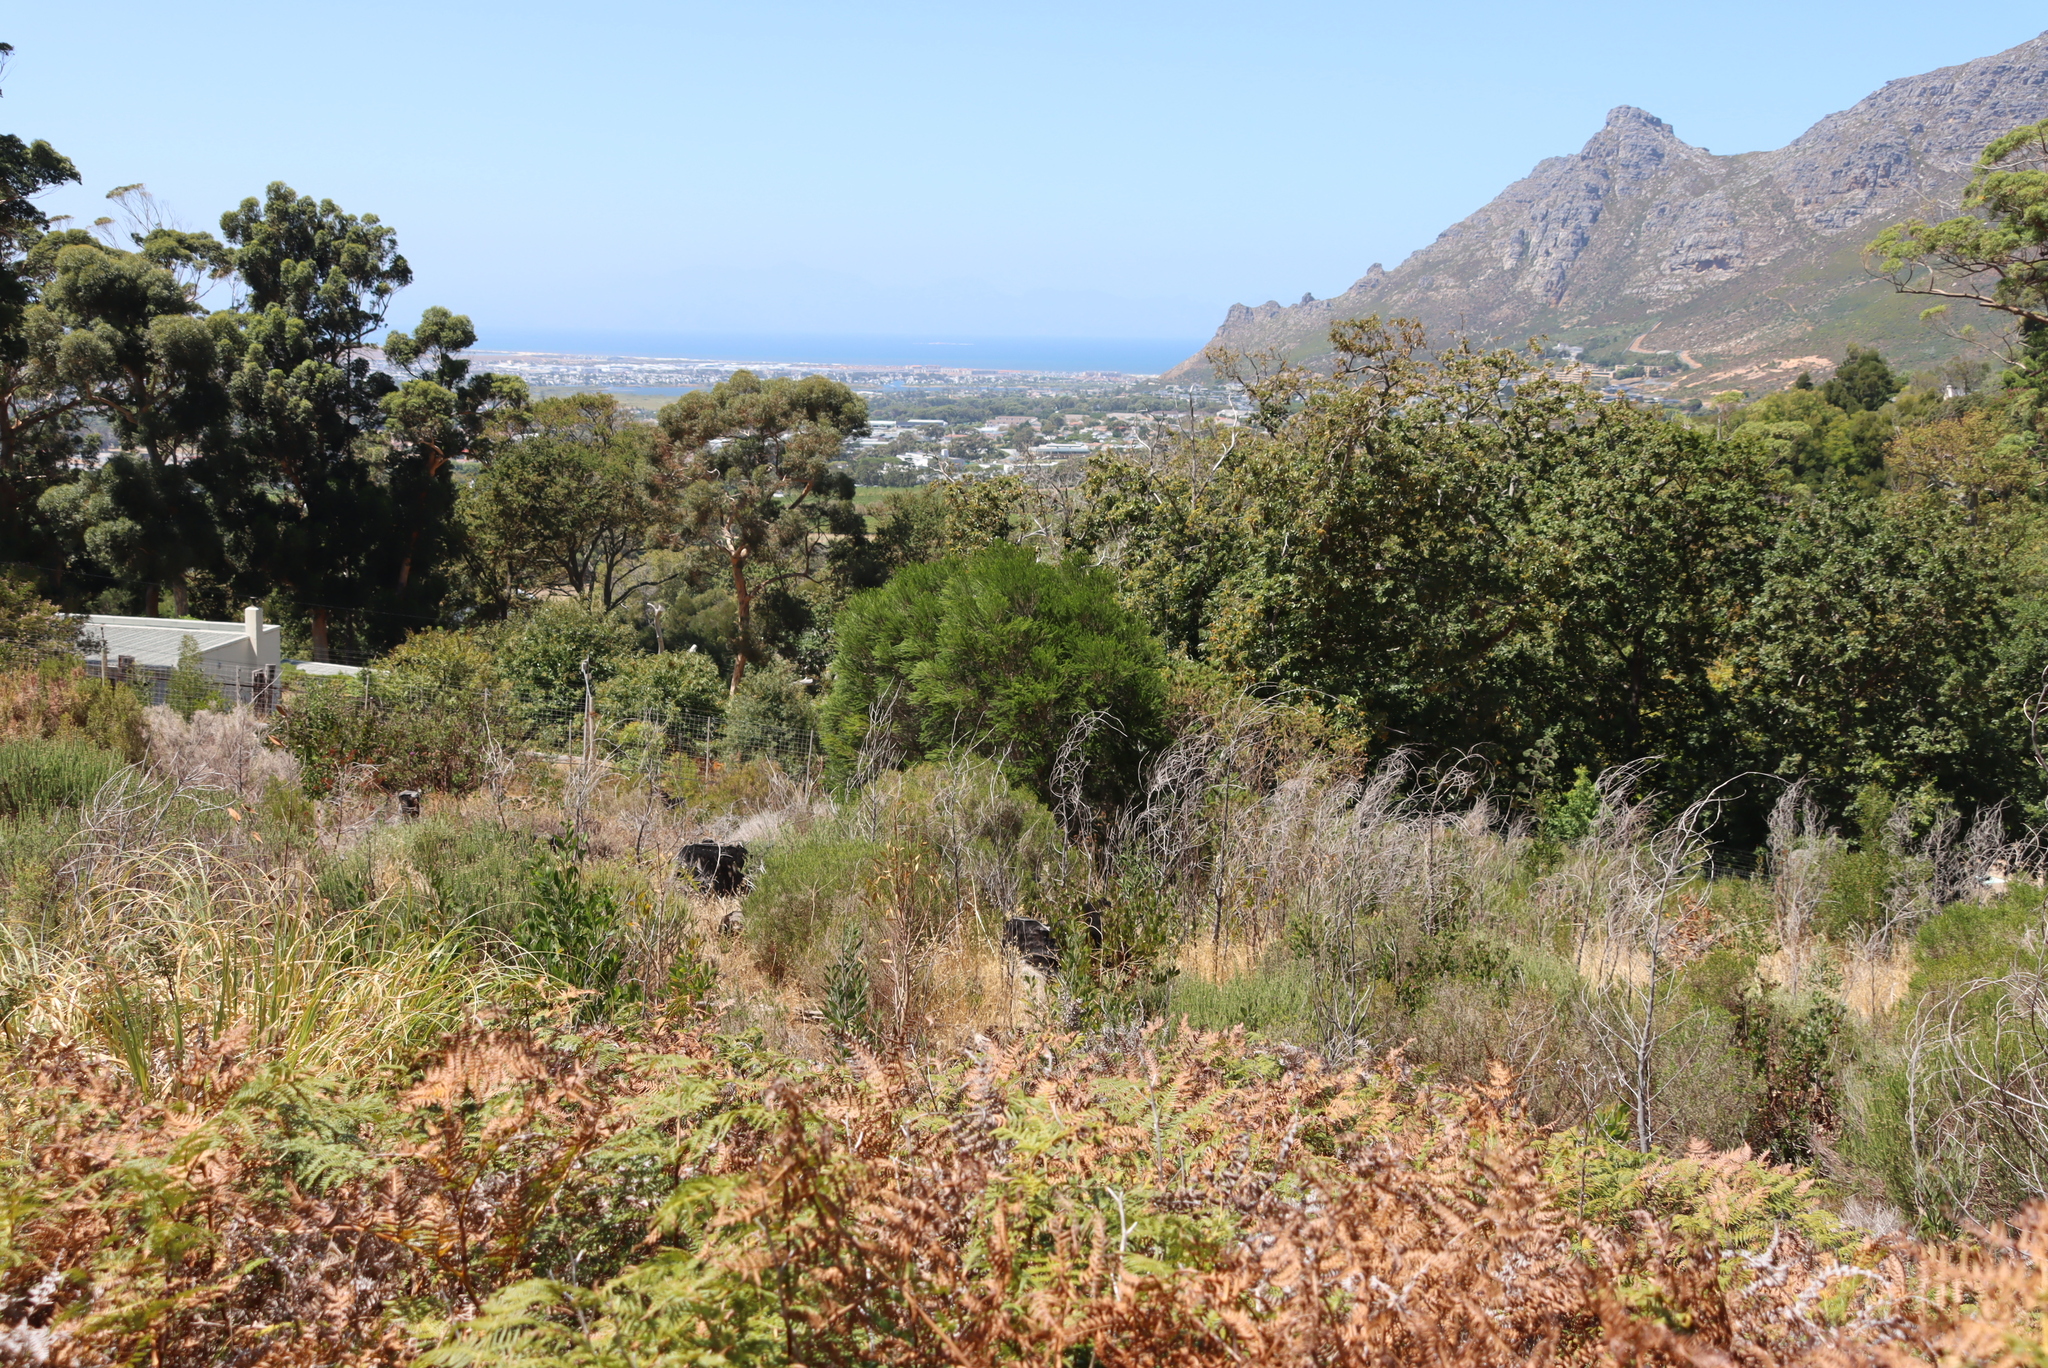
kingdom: Plantae
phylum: Tracheophyta
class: Magnoliopsida
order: Myrtales
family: Myrtaceae
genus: Melaleuca
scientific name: Melaleuca armillaris
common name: Bracelet honey myrtle
